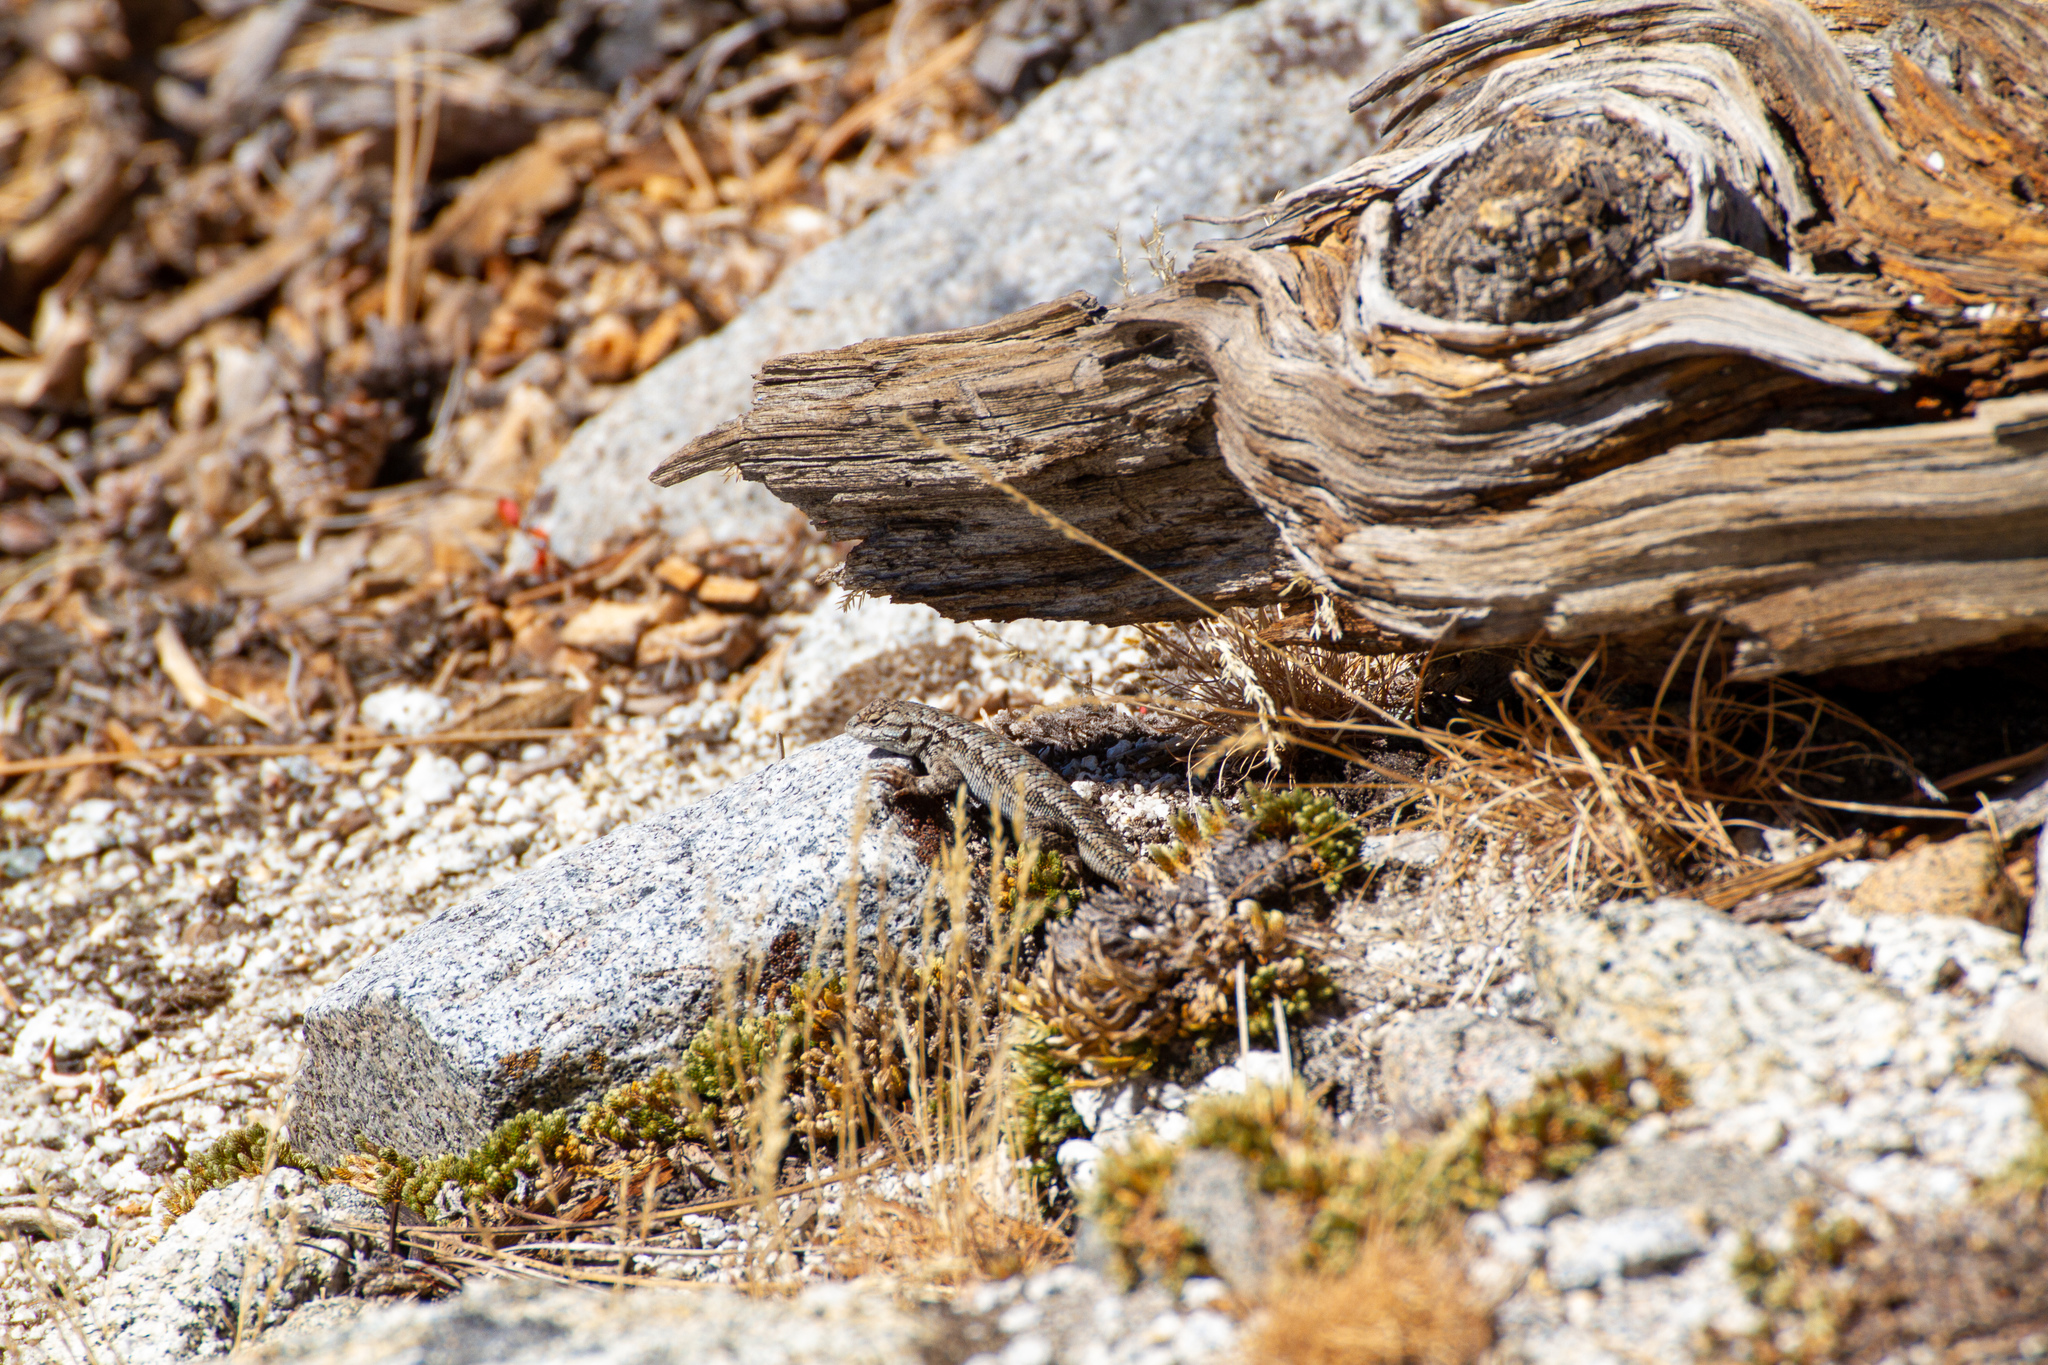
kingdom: Animalia
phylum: Chordata
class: Squamata
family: Phrynosomatidae
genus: Sceloporus
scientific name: Sceloporus graciosus
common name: Sagebrush lizard
